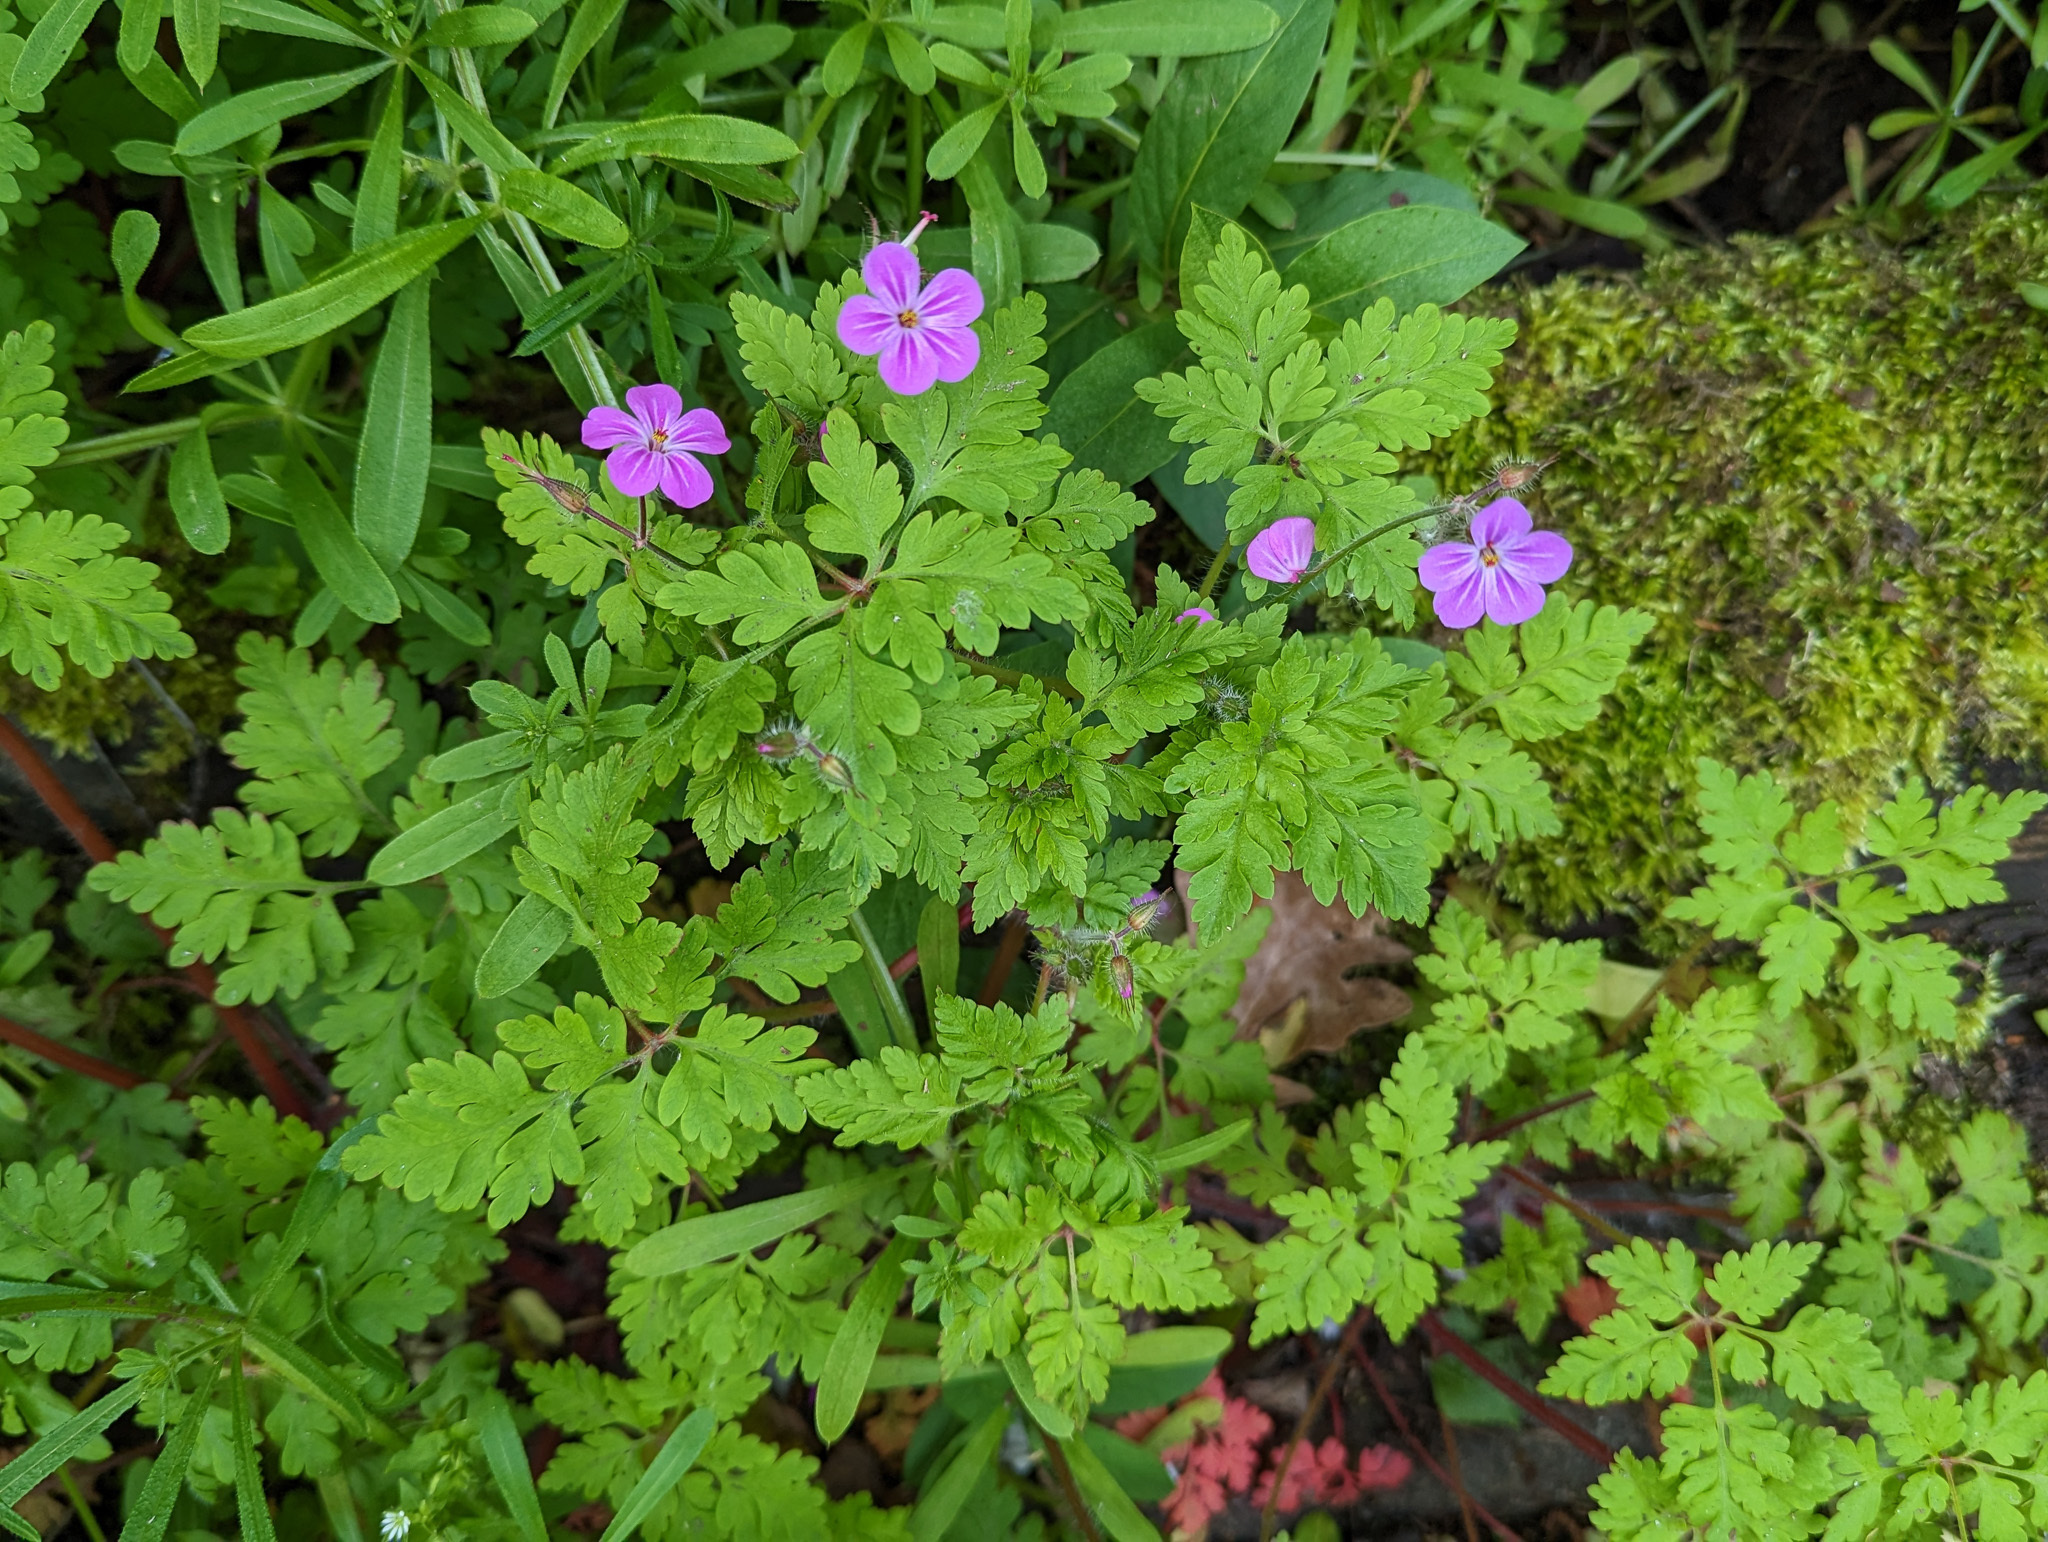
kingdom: Plantae
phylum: Tracheophyta
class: Magnoliopsida
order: Geraniales
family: Geraniaceae
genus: Geranium
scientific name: Geranium robertianum
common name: Herb-robert
